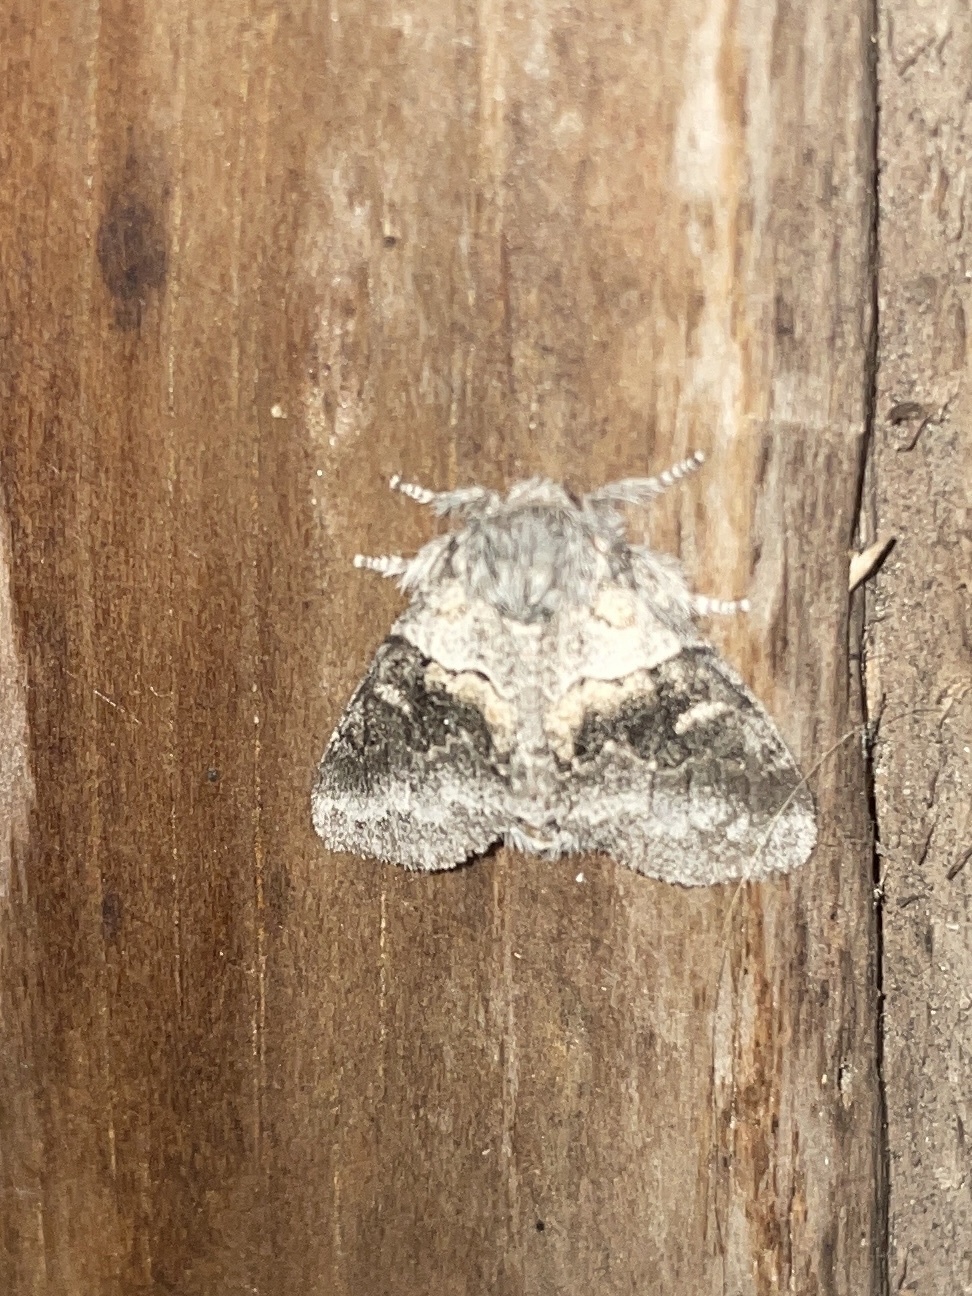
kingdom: Animalia
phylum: Arthropoda
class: Insecta
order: Lepidoptera
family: Notodontidae
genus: Gluphisia
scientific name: Gluphisia septentrionis
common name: Common gluphisia
